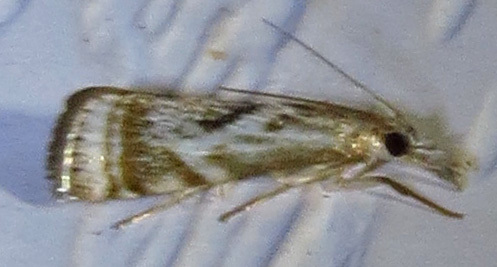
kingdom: Animalia
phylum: Arthropoda
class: Insecta
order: Lepidoptera
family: Crambidae
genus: Microcrambus
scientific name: Microcrambus elegans
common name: Elegant grass-veneer
